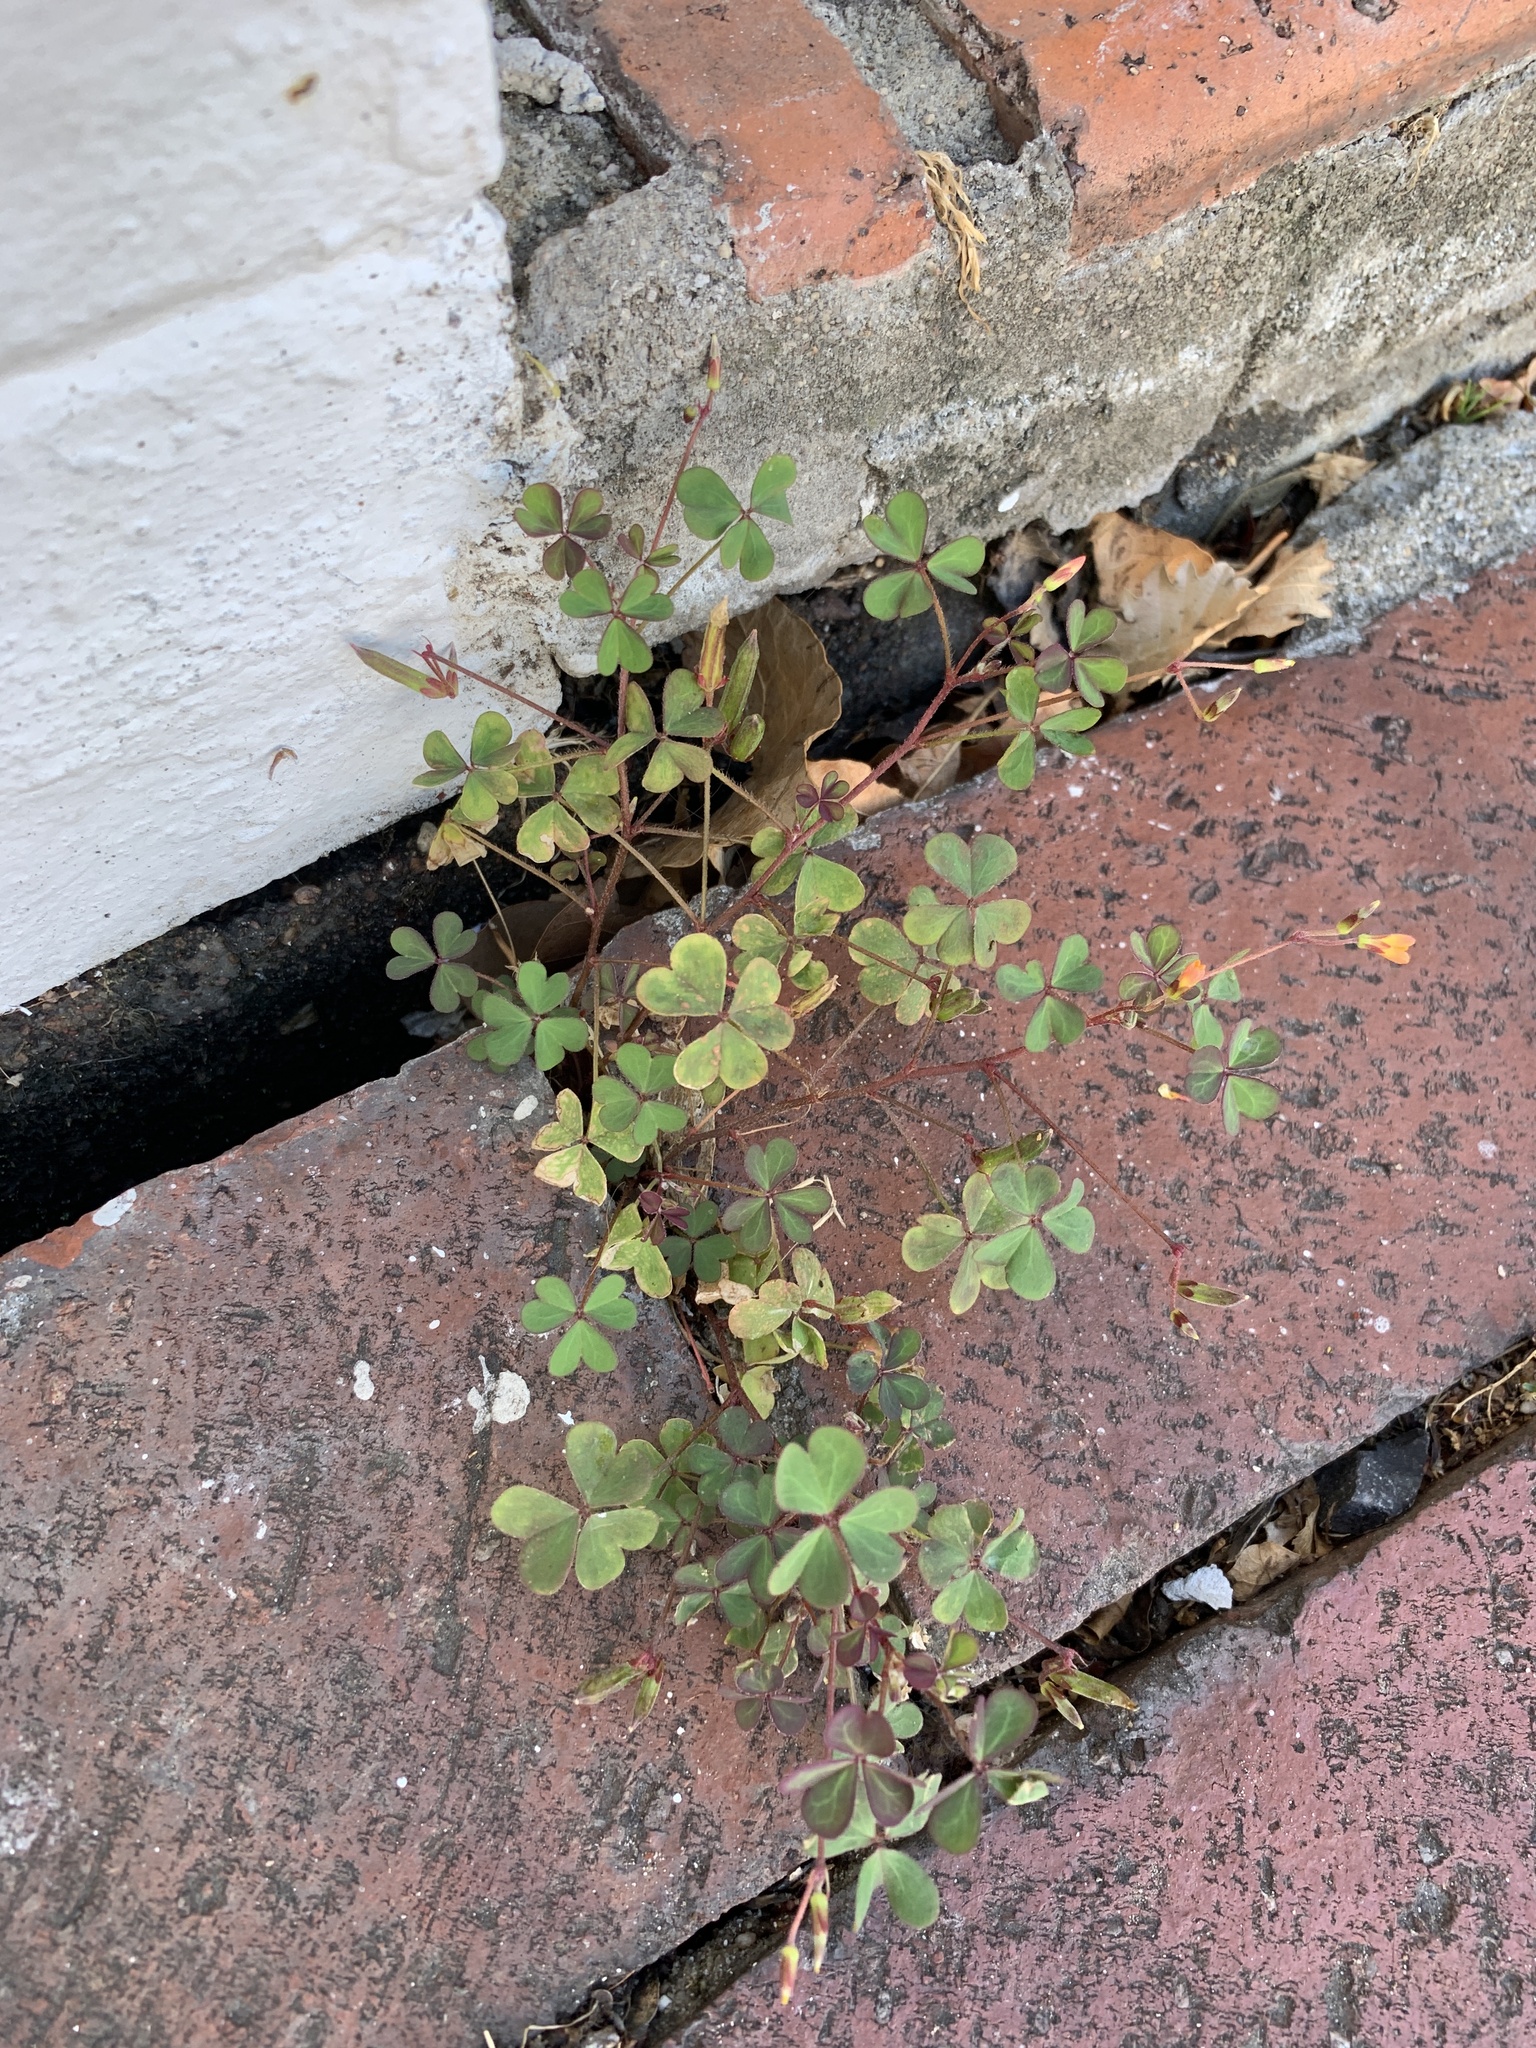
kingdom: Plantae
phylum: Tracheophyta
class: Magnoliopsida
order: Oxalidales
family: Oxalidaceae
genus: Oxalis
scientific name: Oxalis corniculata
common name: Procumbent yellow-sorrel
